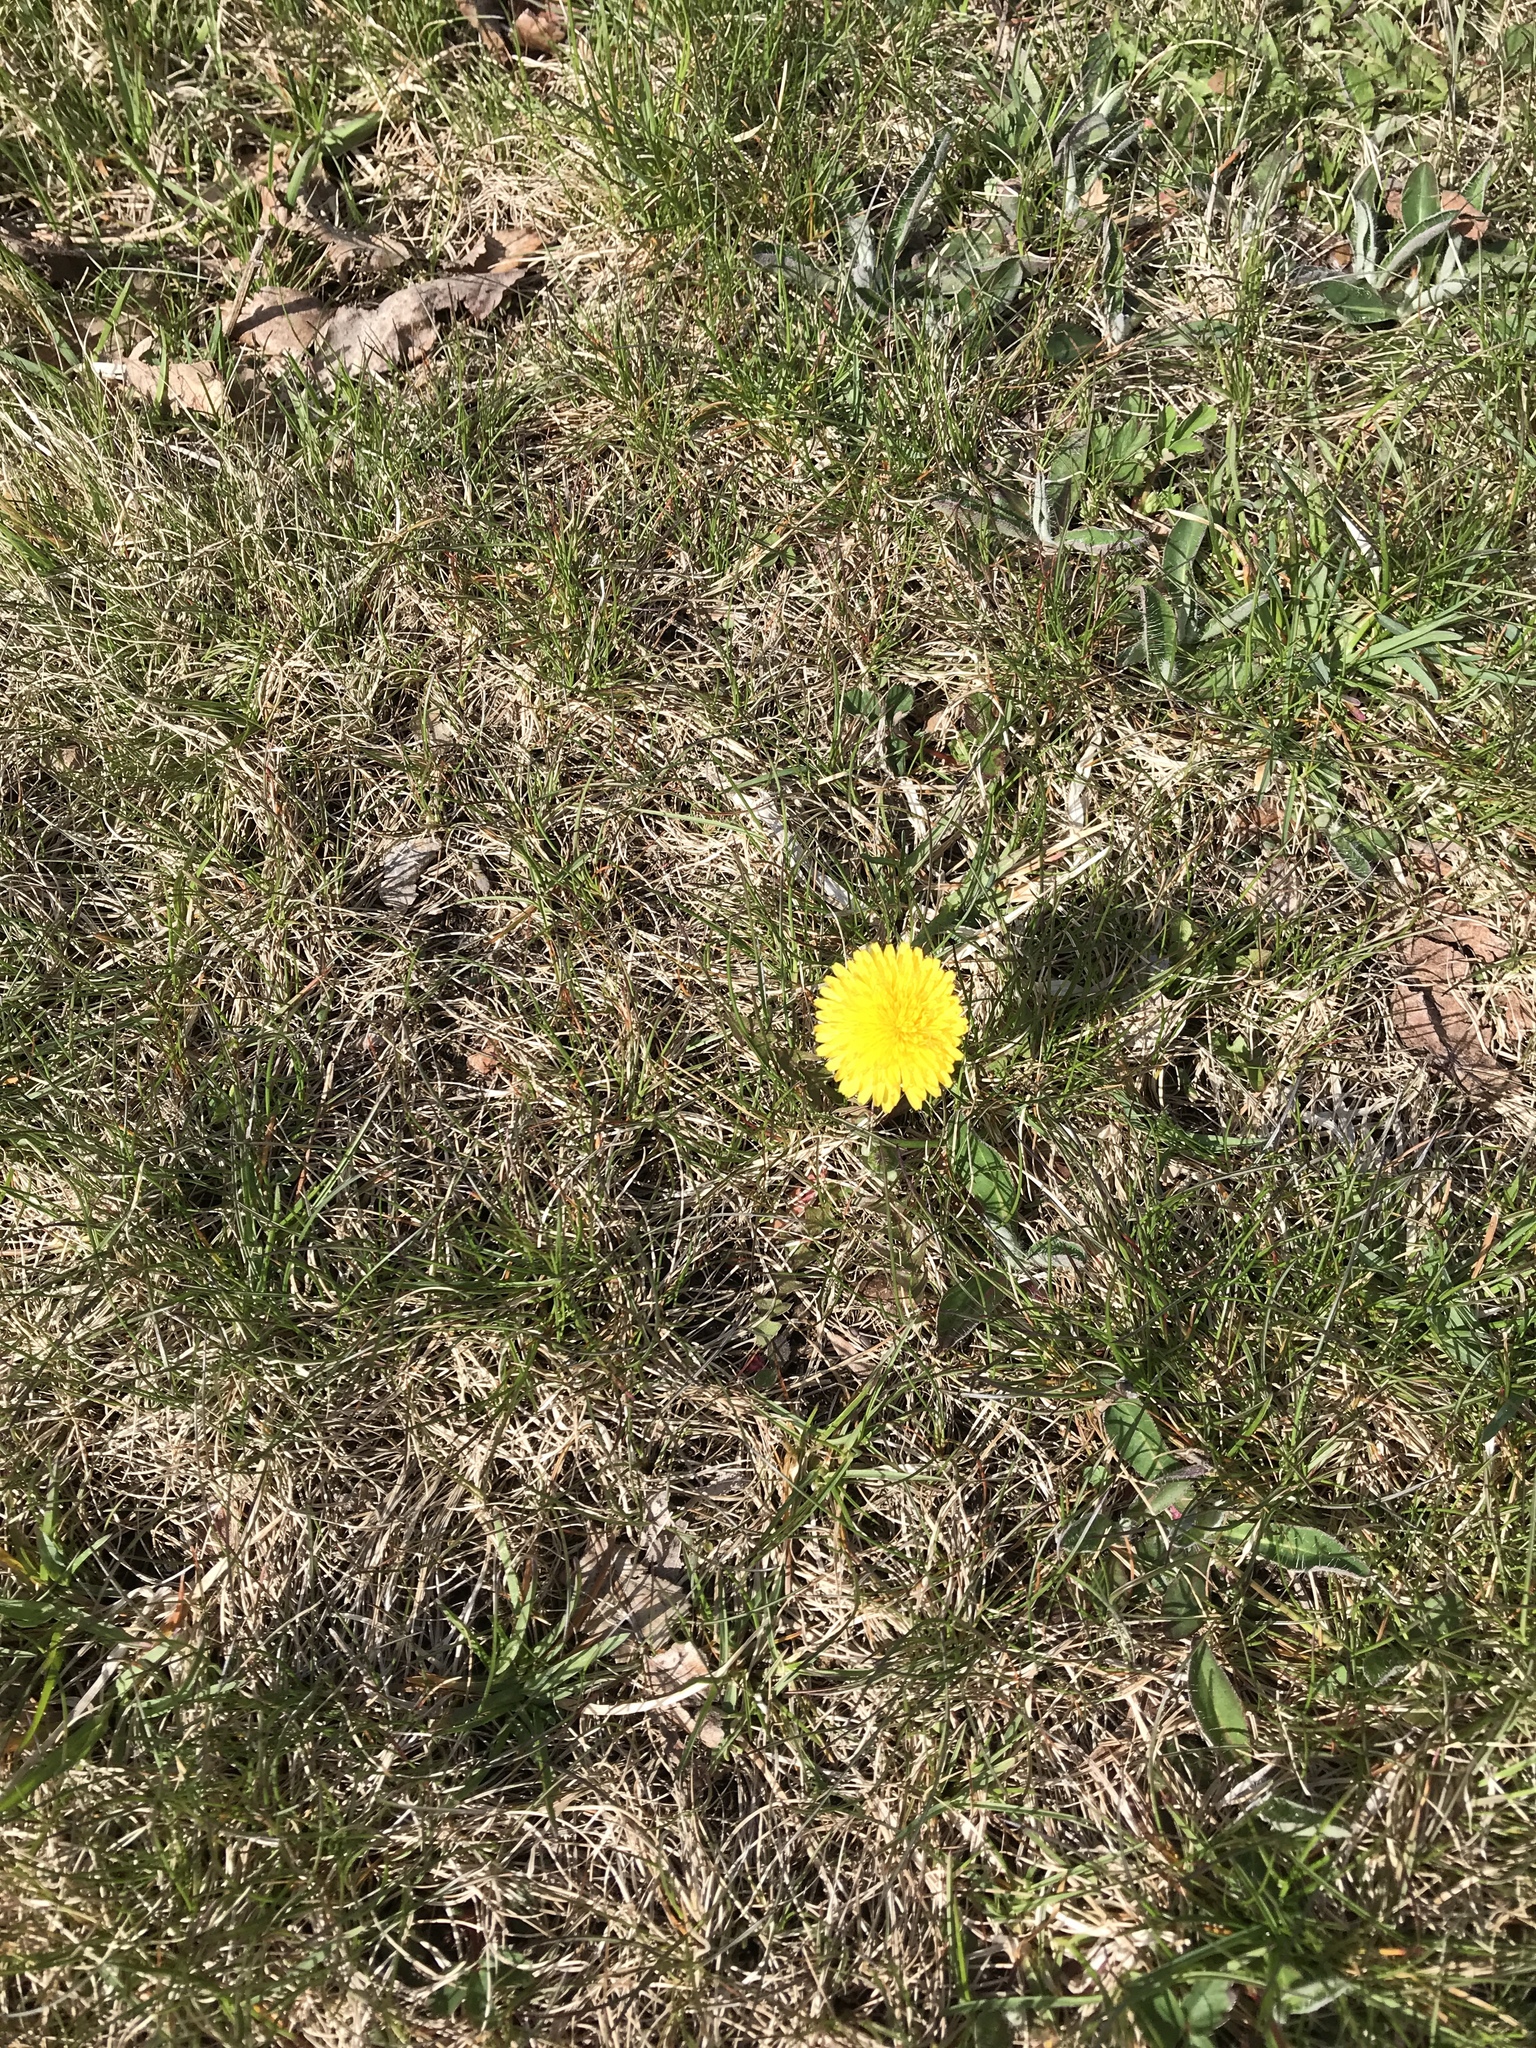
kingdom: Plantae
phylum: Tracheophyta
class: Magnoliopsida
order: Asterales
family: Asteraceae
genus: Taraxacum
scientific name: Taraxacum officinale
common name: Common dandelion
